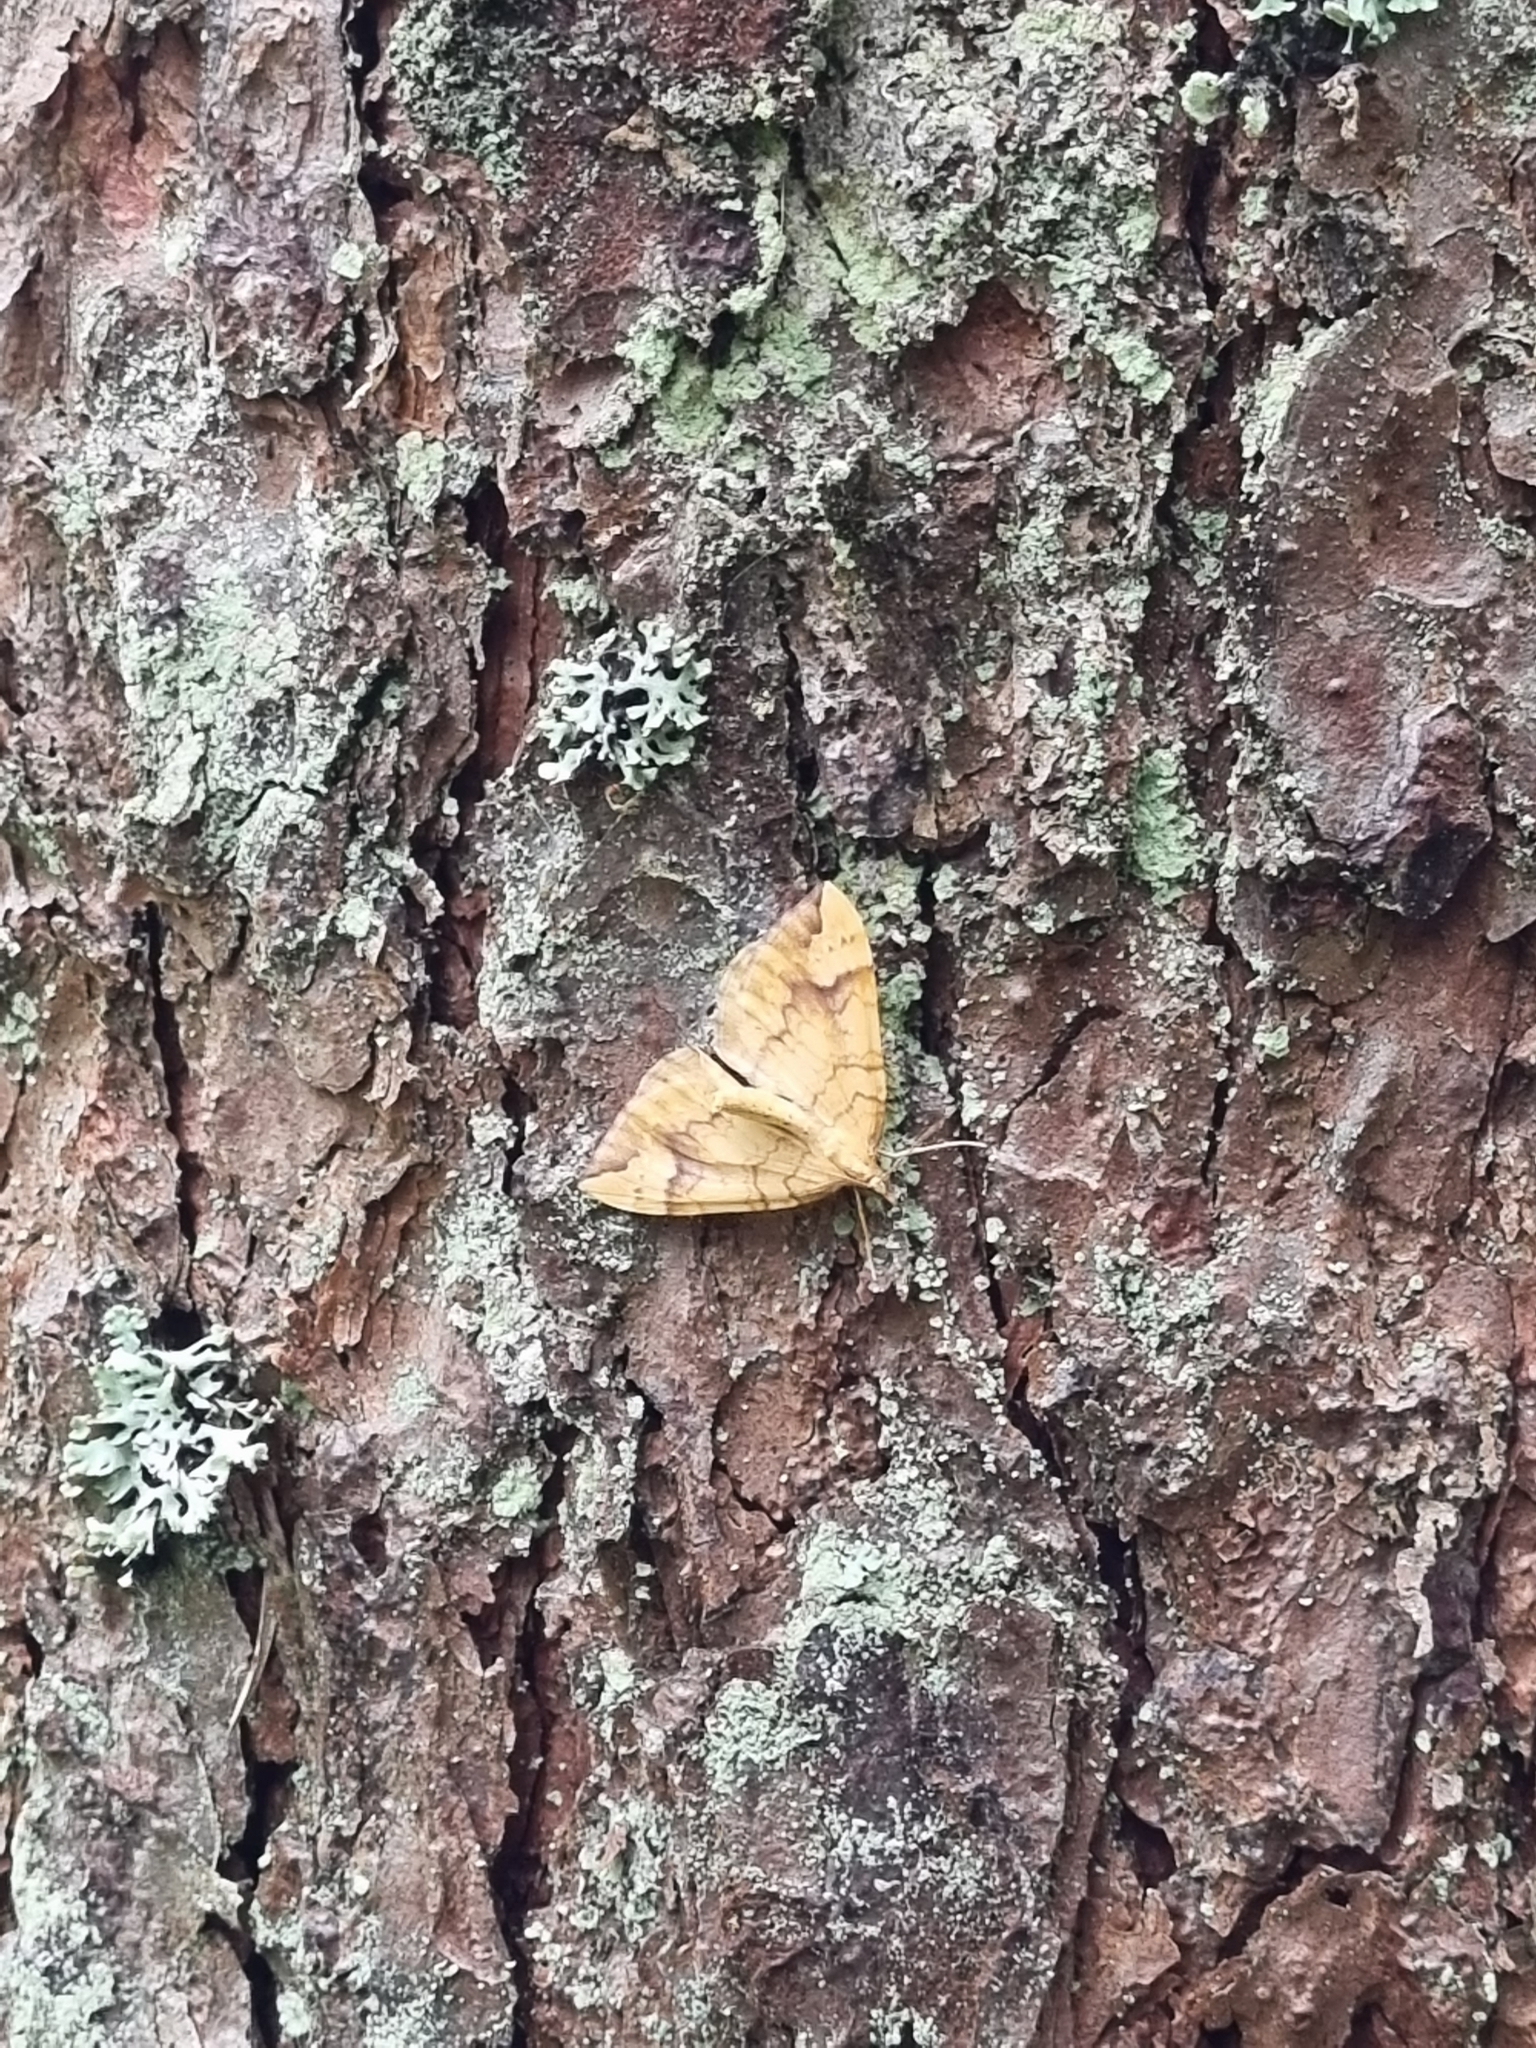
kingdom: Animalia
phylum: Arthropoda
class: Insecta
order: Lepidoptera
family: Geometridae
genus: Eulithis
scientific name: Eulithis populata
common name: Northern spinach
